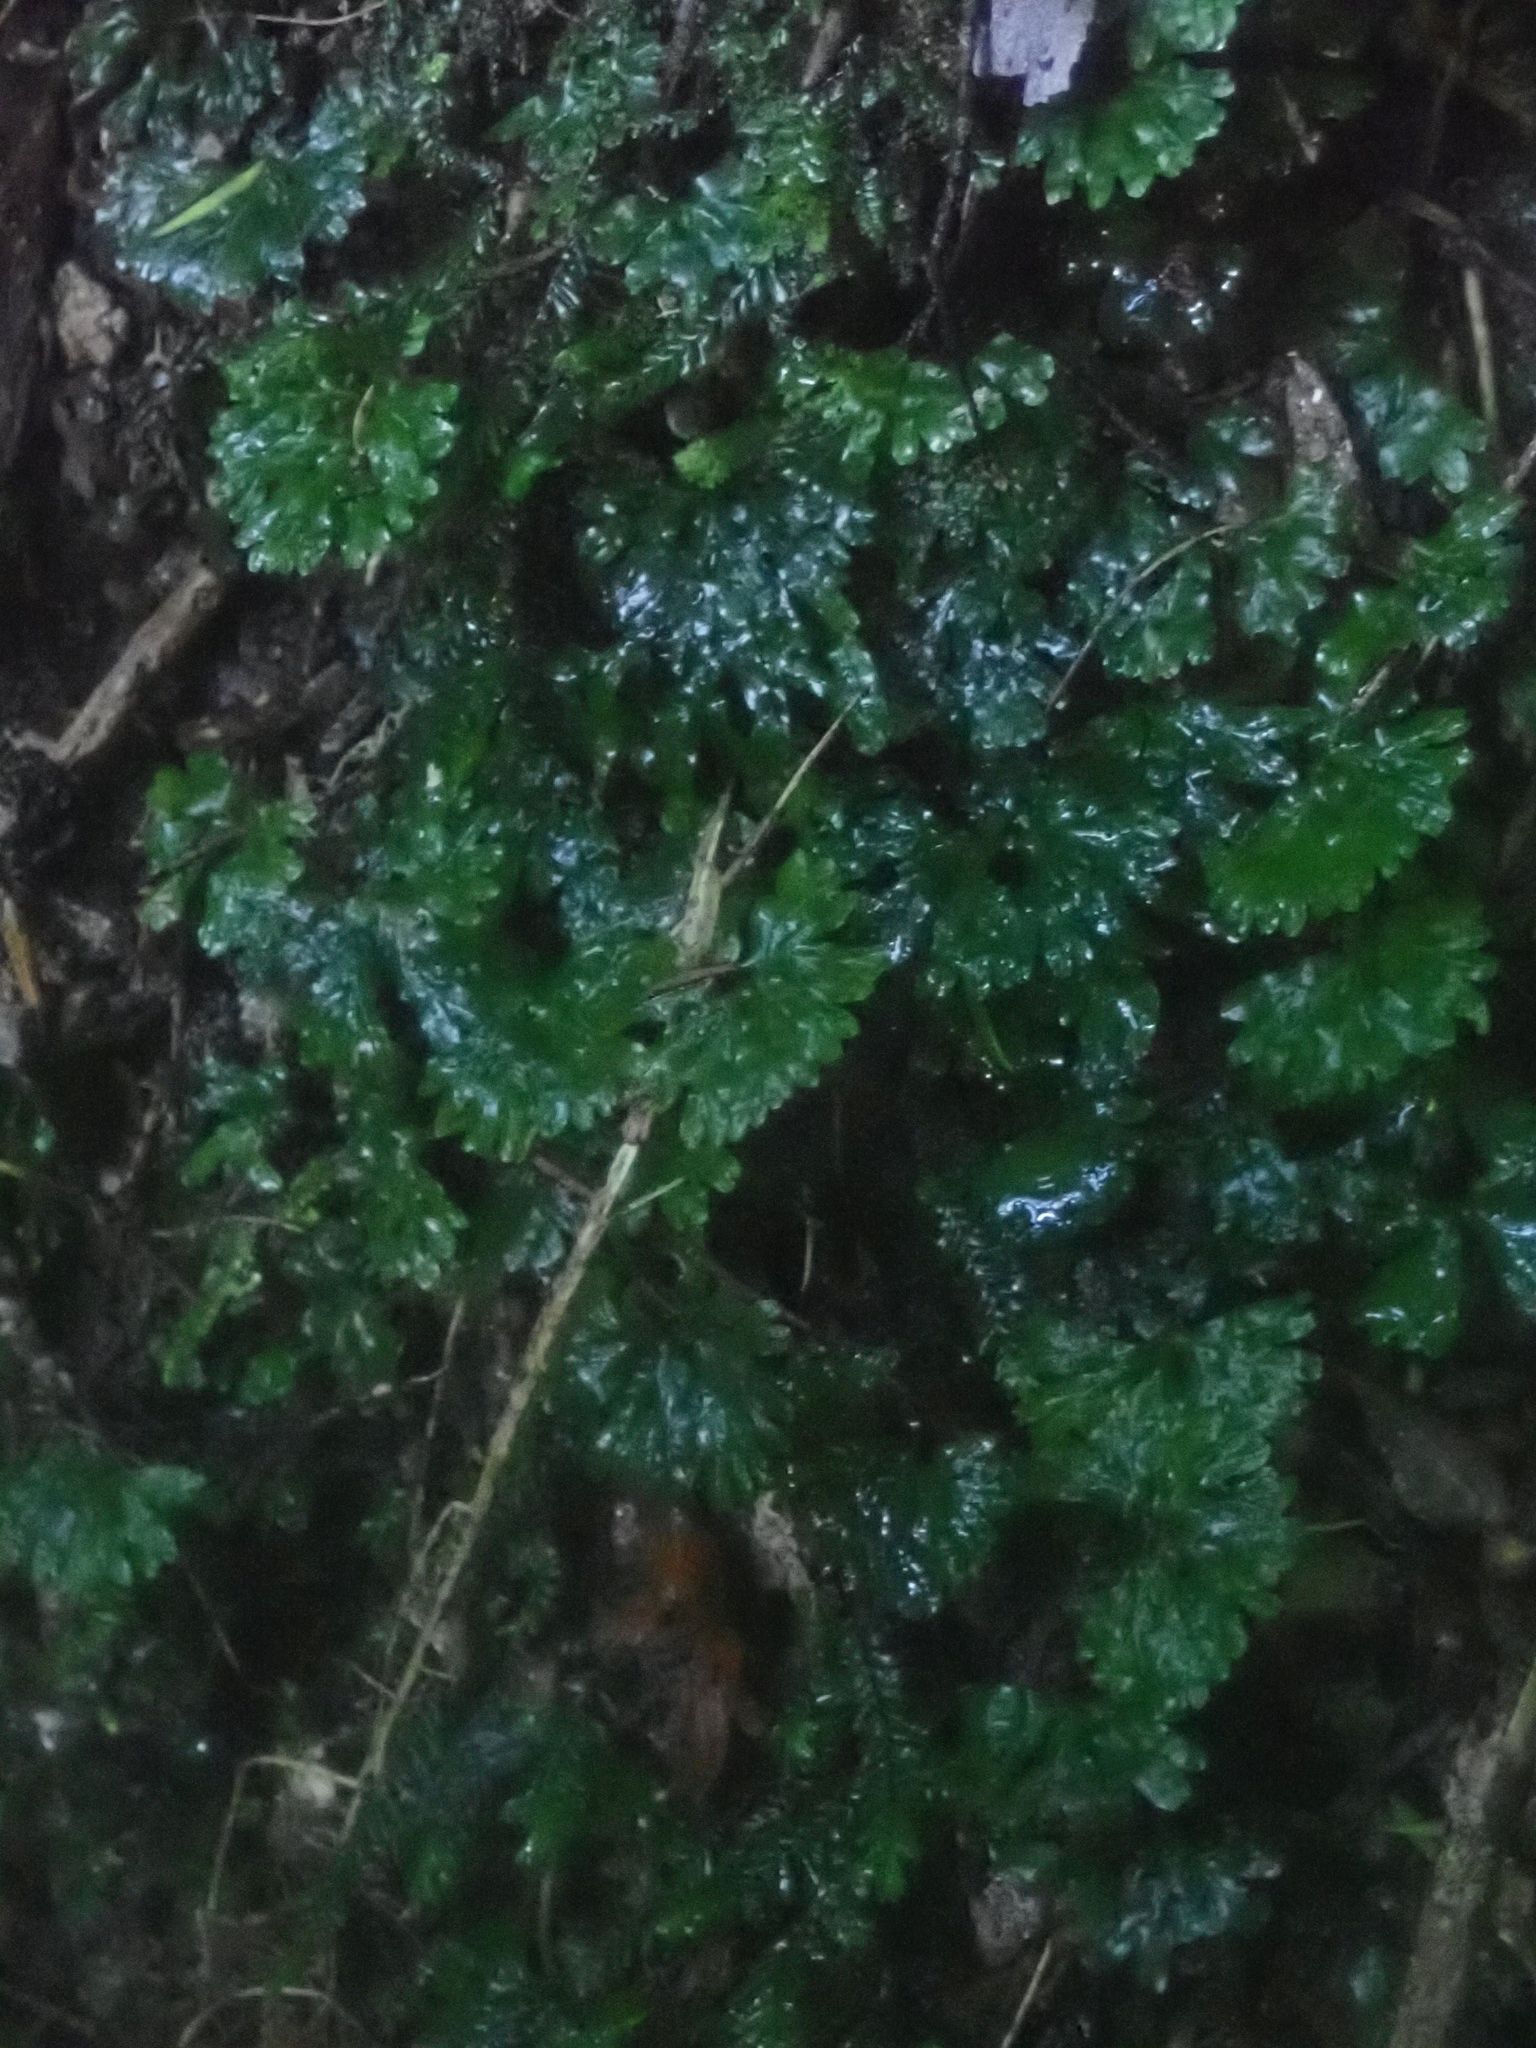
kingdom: Plantae
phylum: Marchantiophyta
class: Jungermanniopsida
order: Pallaviciniales
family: Hymenophytaceae
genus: Hymenophyton
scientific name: Hymenophyton flabellatum
